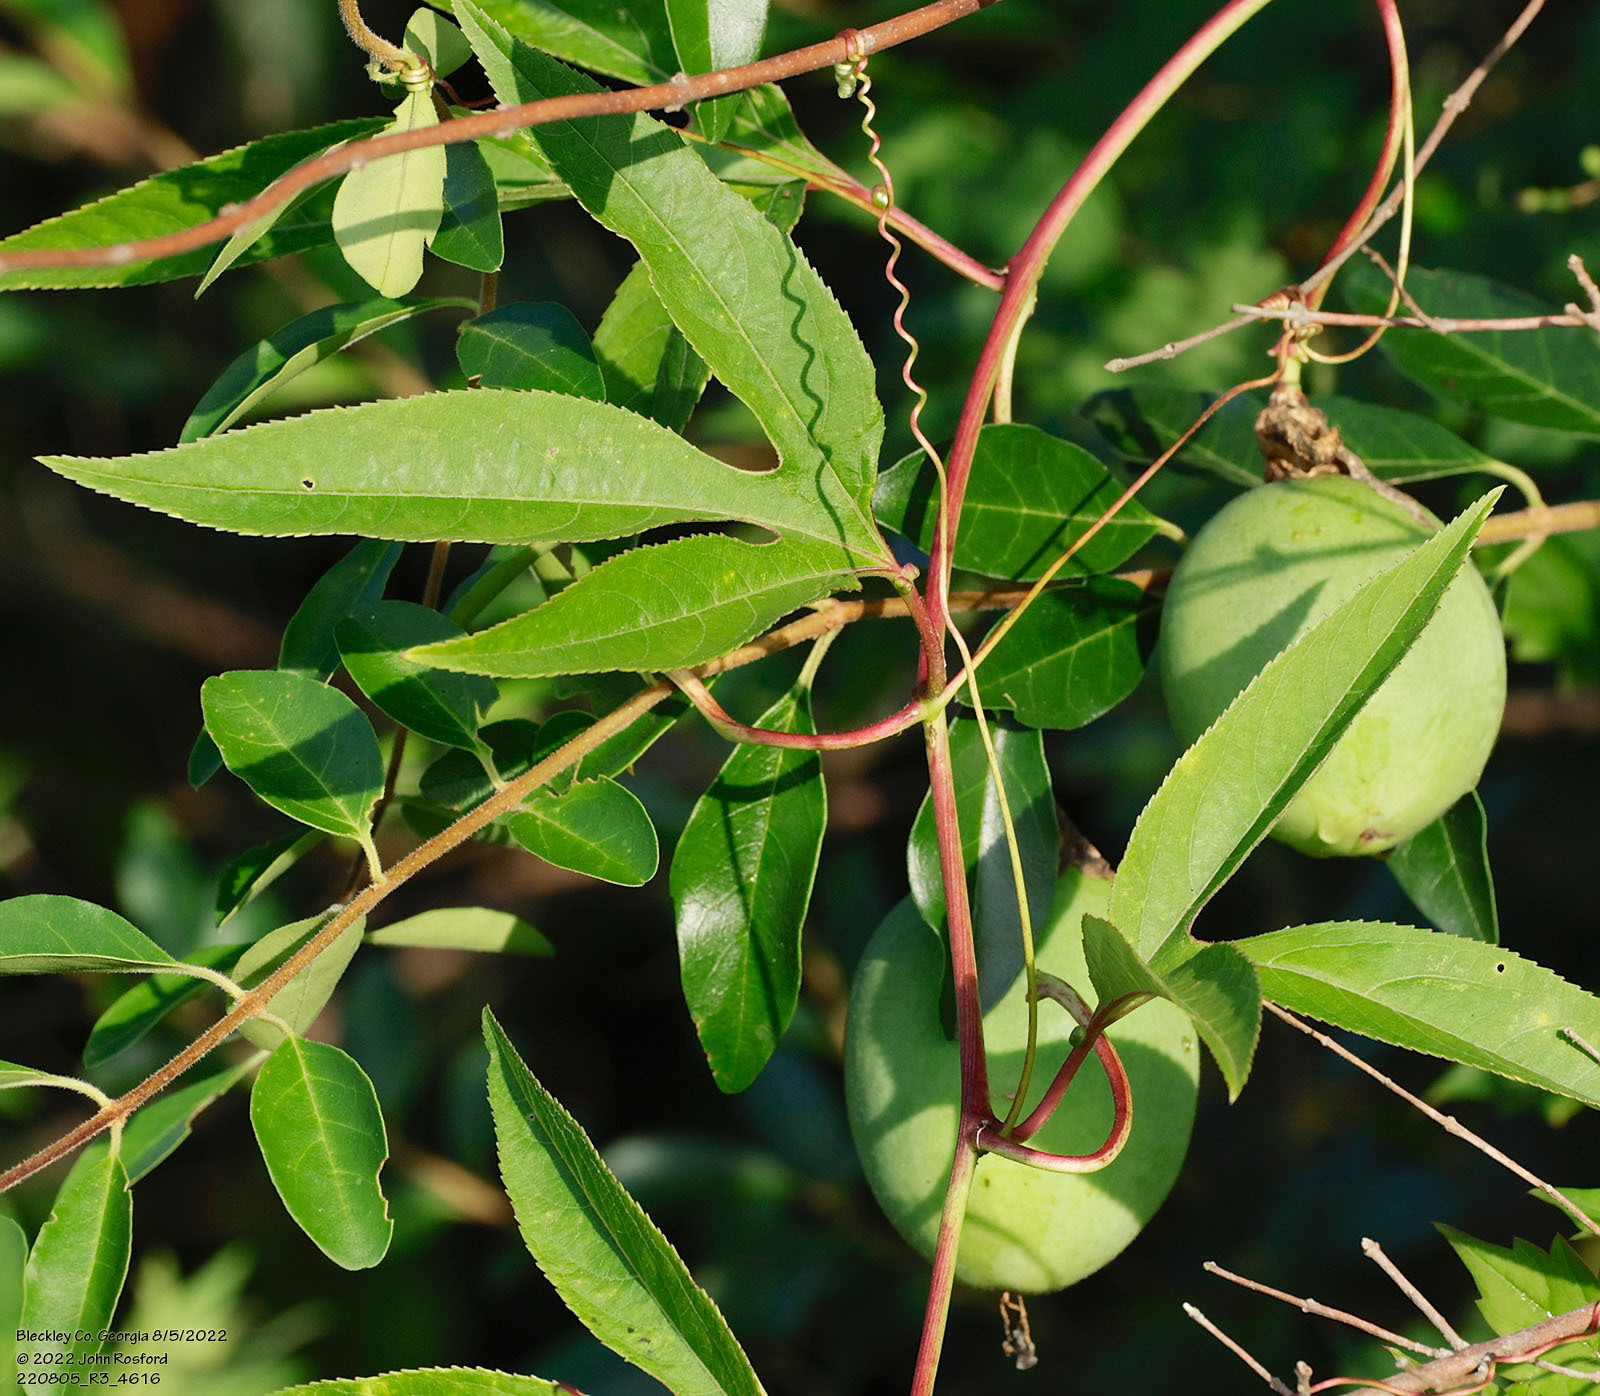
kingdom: Plantae
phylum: Tracheophyta
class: Magnoliopsida
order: Malpighiales
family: Passifloraceae
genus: Passiflora
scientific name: Passiflora incarnata
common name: Apricot-vine
